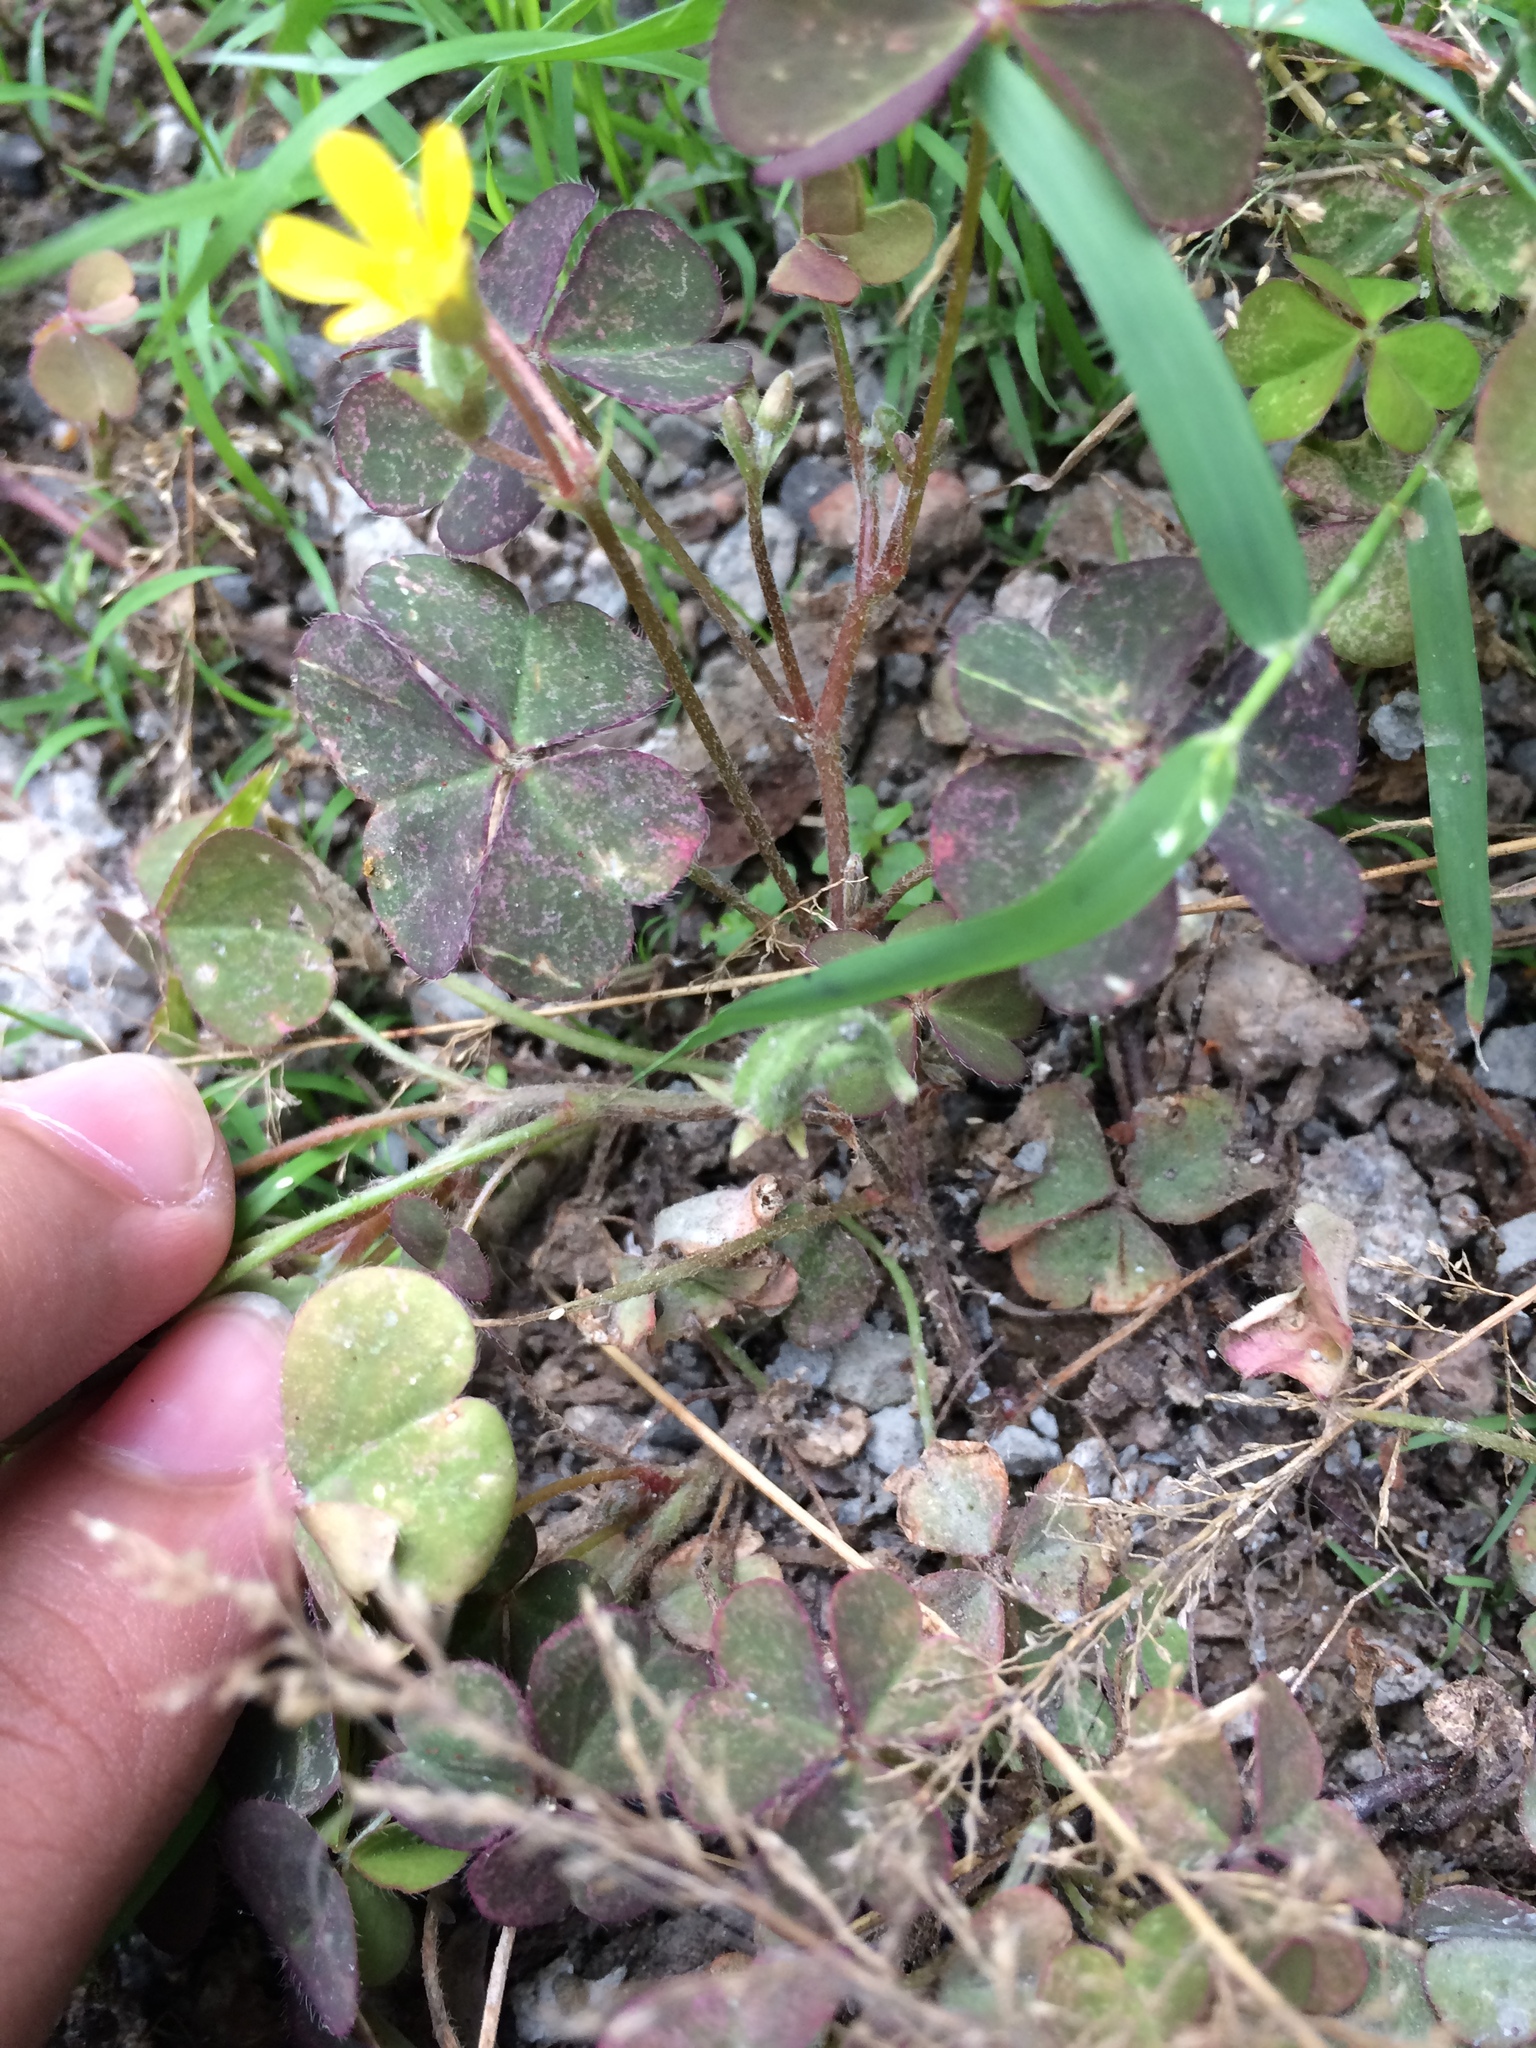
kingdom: Plantae
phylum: Tracheophyta
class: Magnoliopsida
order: Oxalidales
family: Oxalidaceae
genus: Oxalis
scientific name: Oxalis corniculata
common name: Procumbent yellow-sorrel
